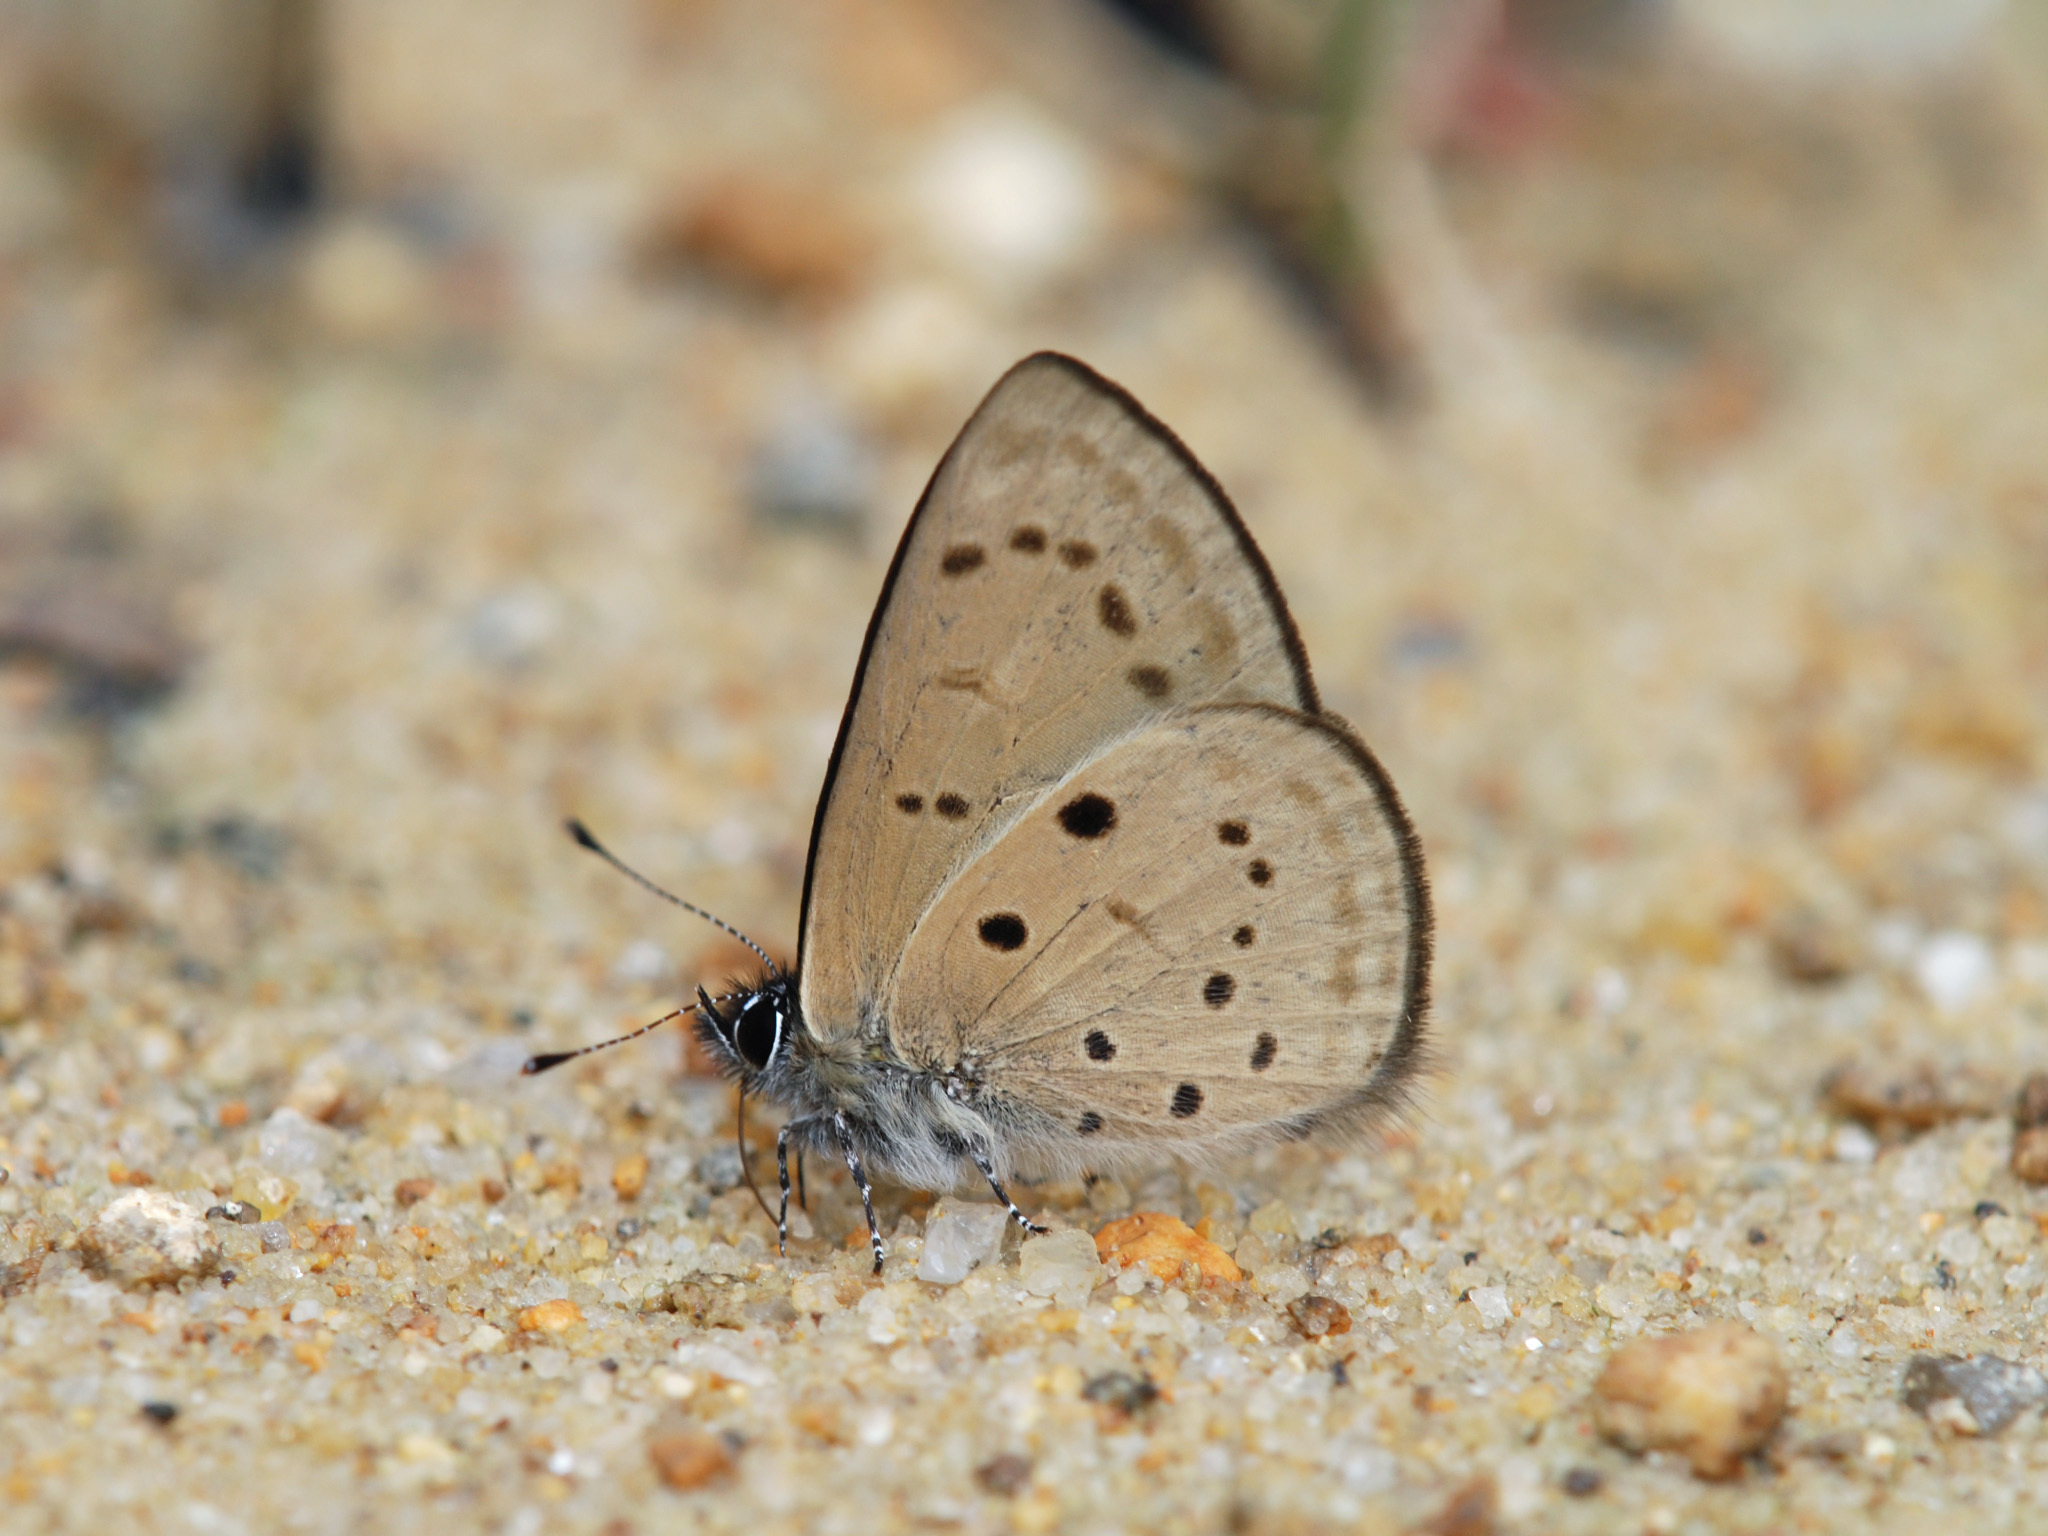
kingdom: Animalia
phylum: Arthropoda
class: Insecta
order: Lepidoptera
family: Lycaenidae
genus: Una
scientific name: Una usta
